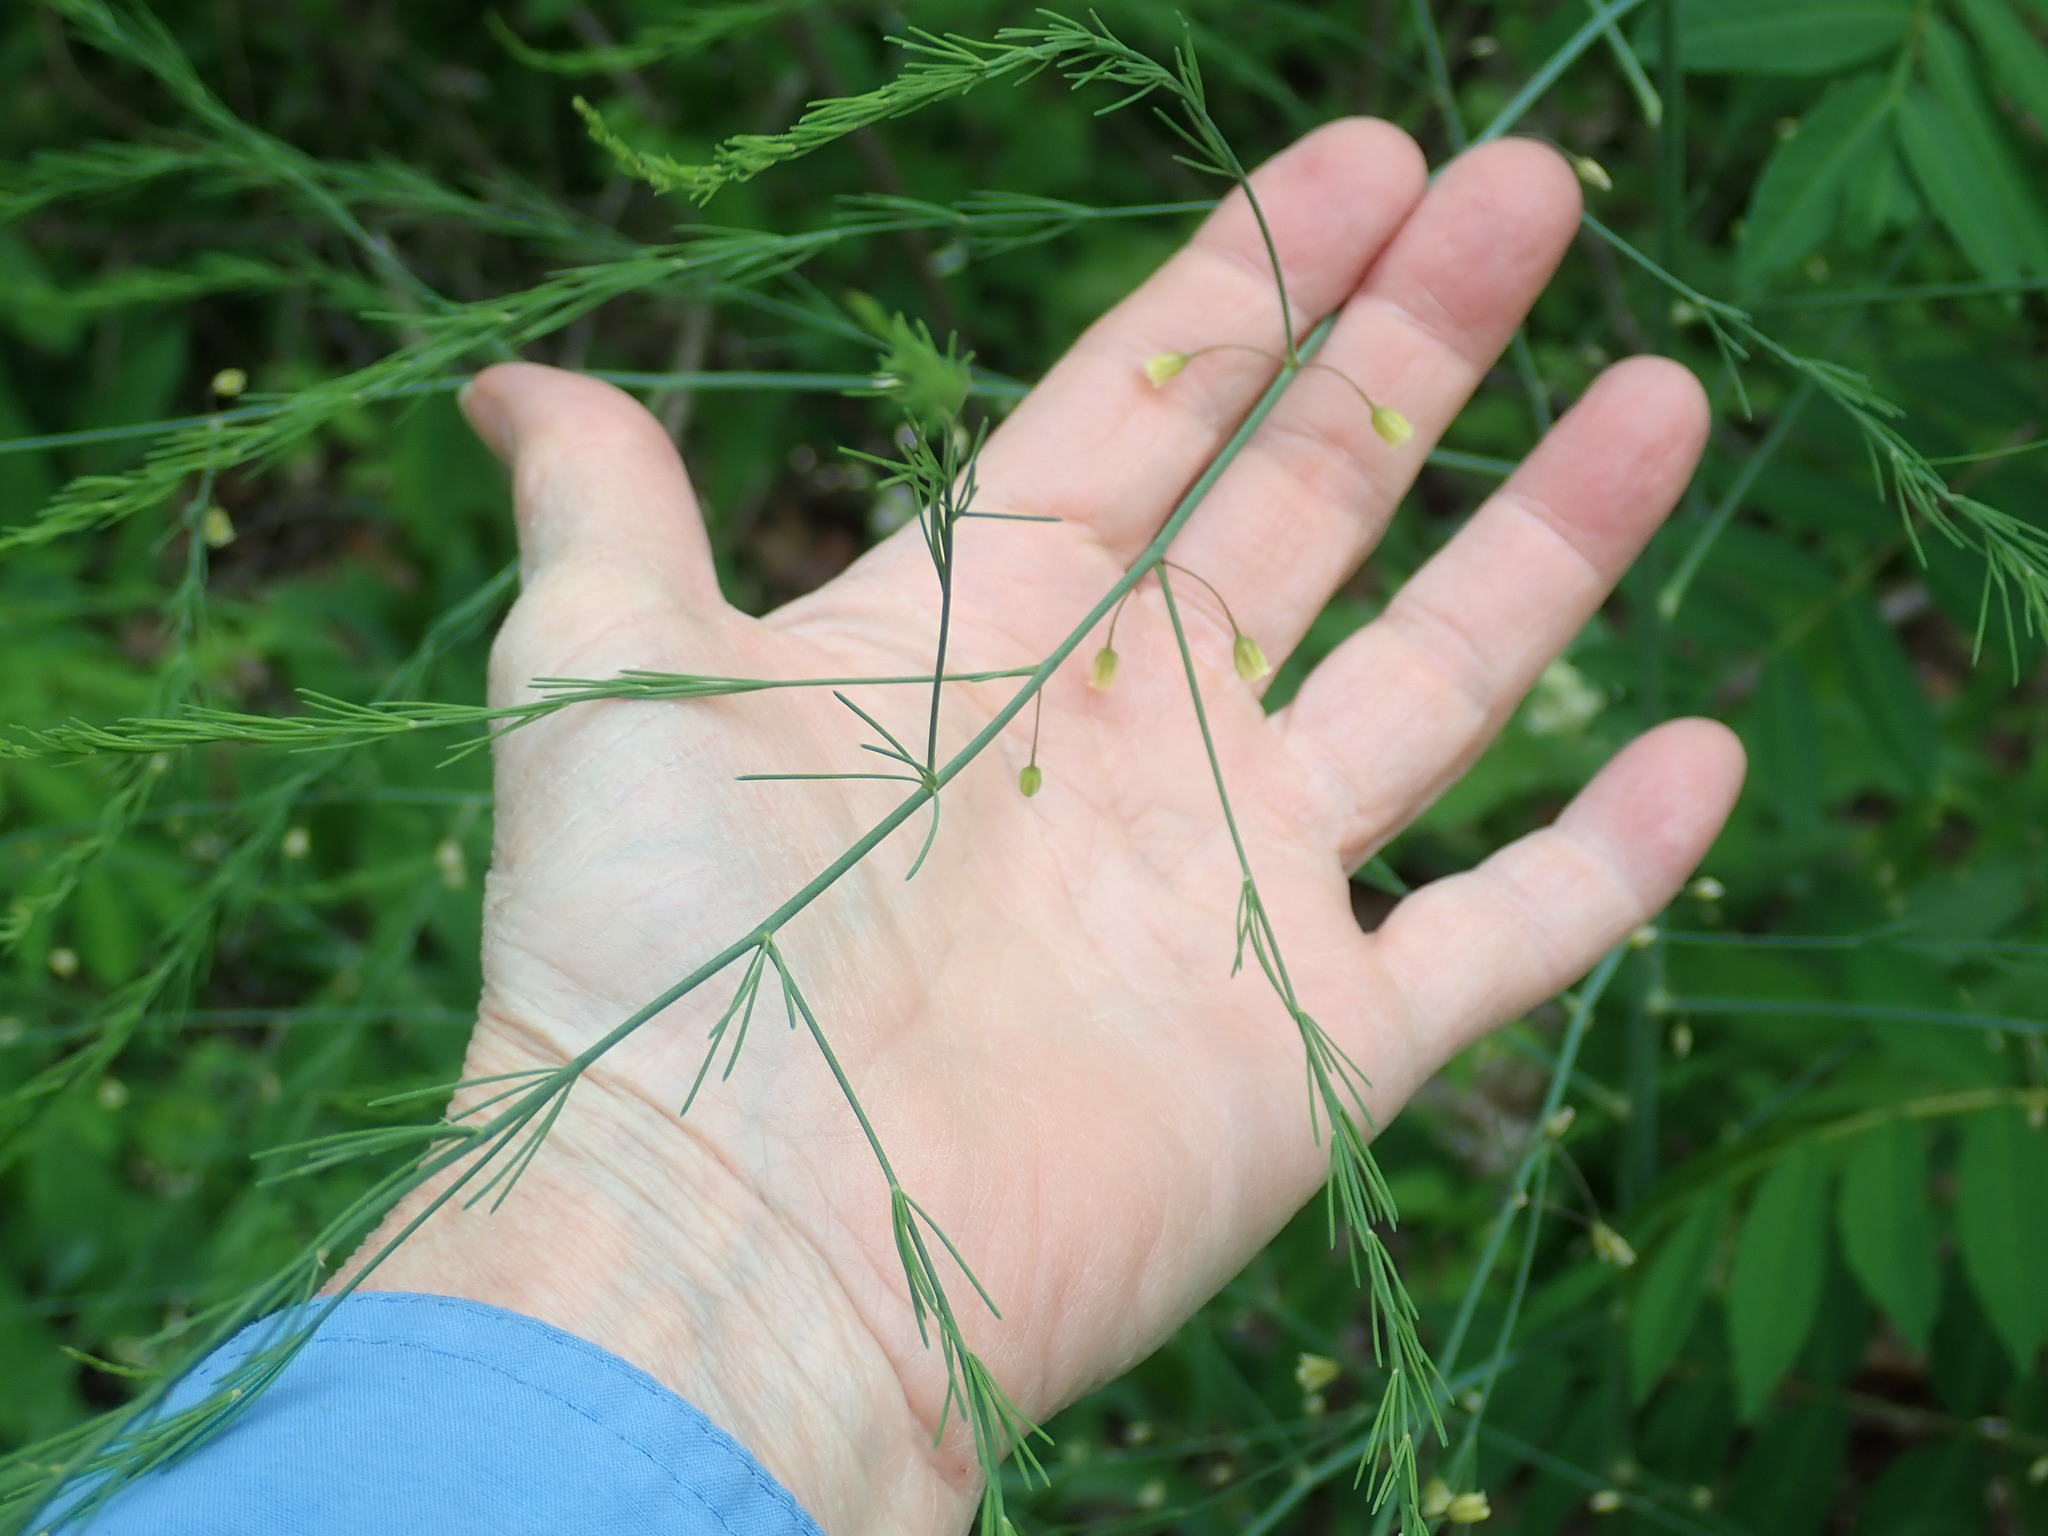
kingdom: Plantae
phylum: Tracheophyta
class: Liliopsida
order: Asparagales
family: Asparagaceae
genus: Asparagus
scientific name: Asparagus officinalis
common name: Garden asparagus
